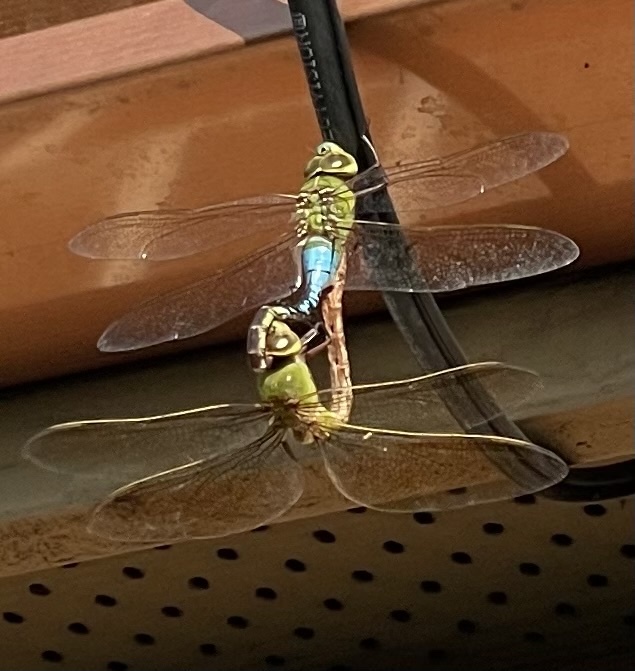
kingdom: Animalia
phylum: Arthropoda
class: Insecta
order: Odonata
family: Aeshnidae
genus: Anax
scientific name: Anax junius
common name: Common green darner
